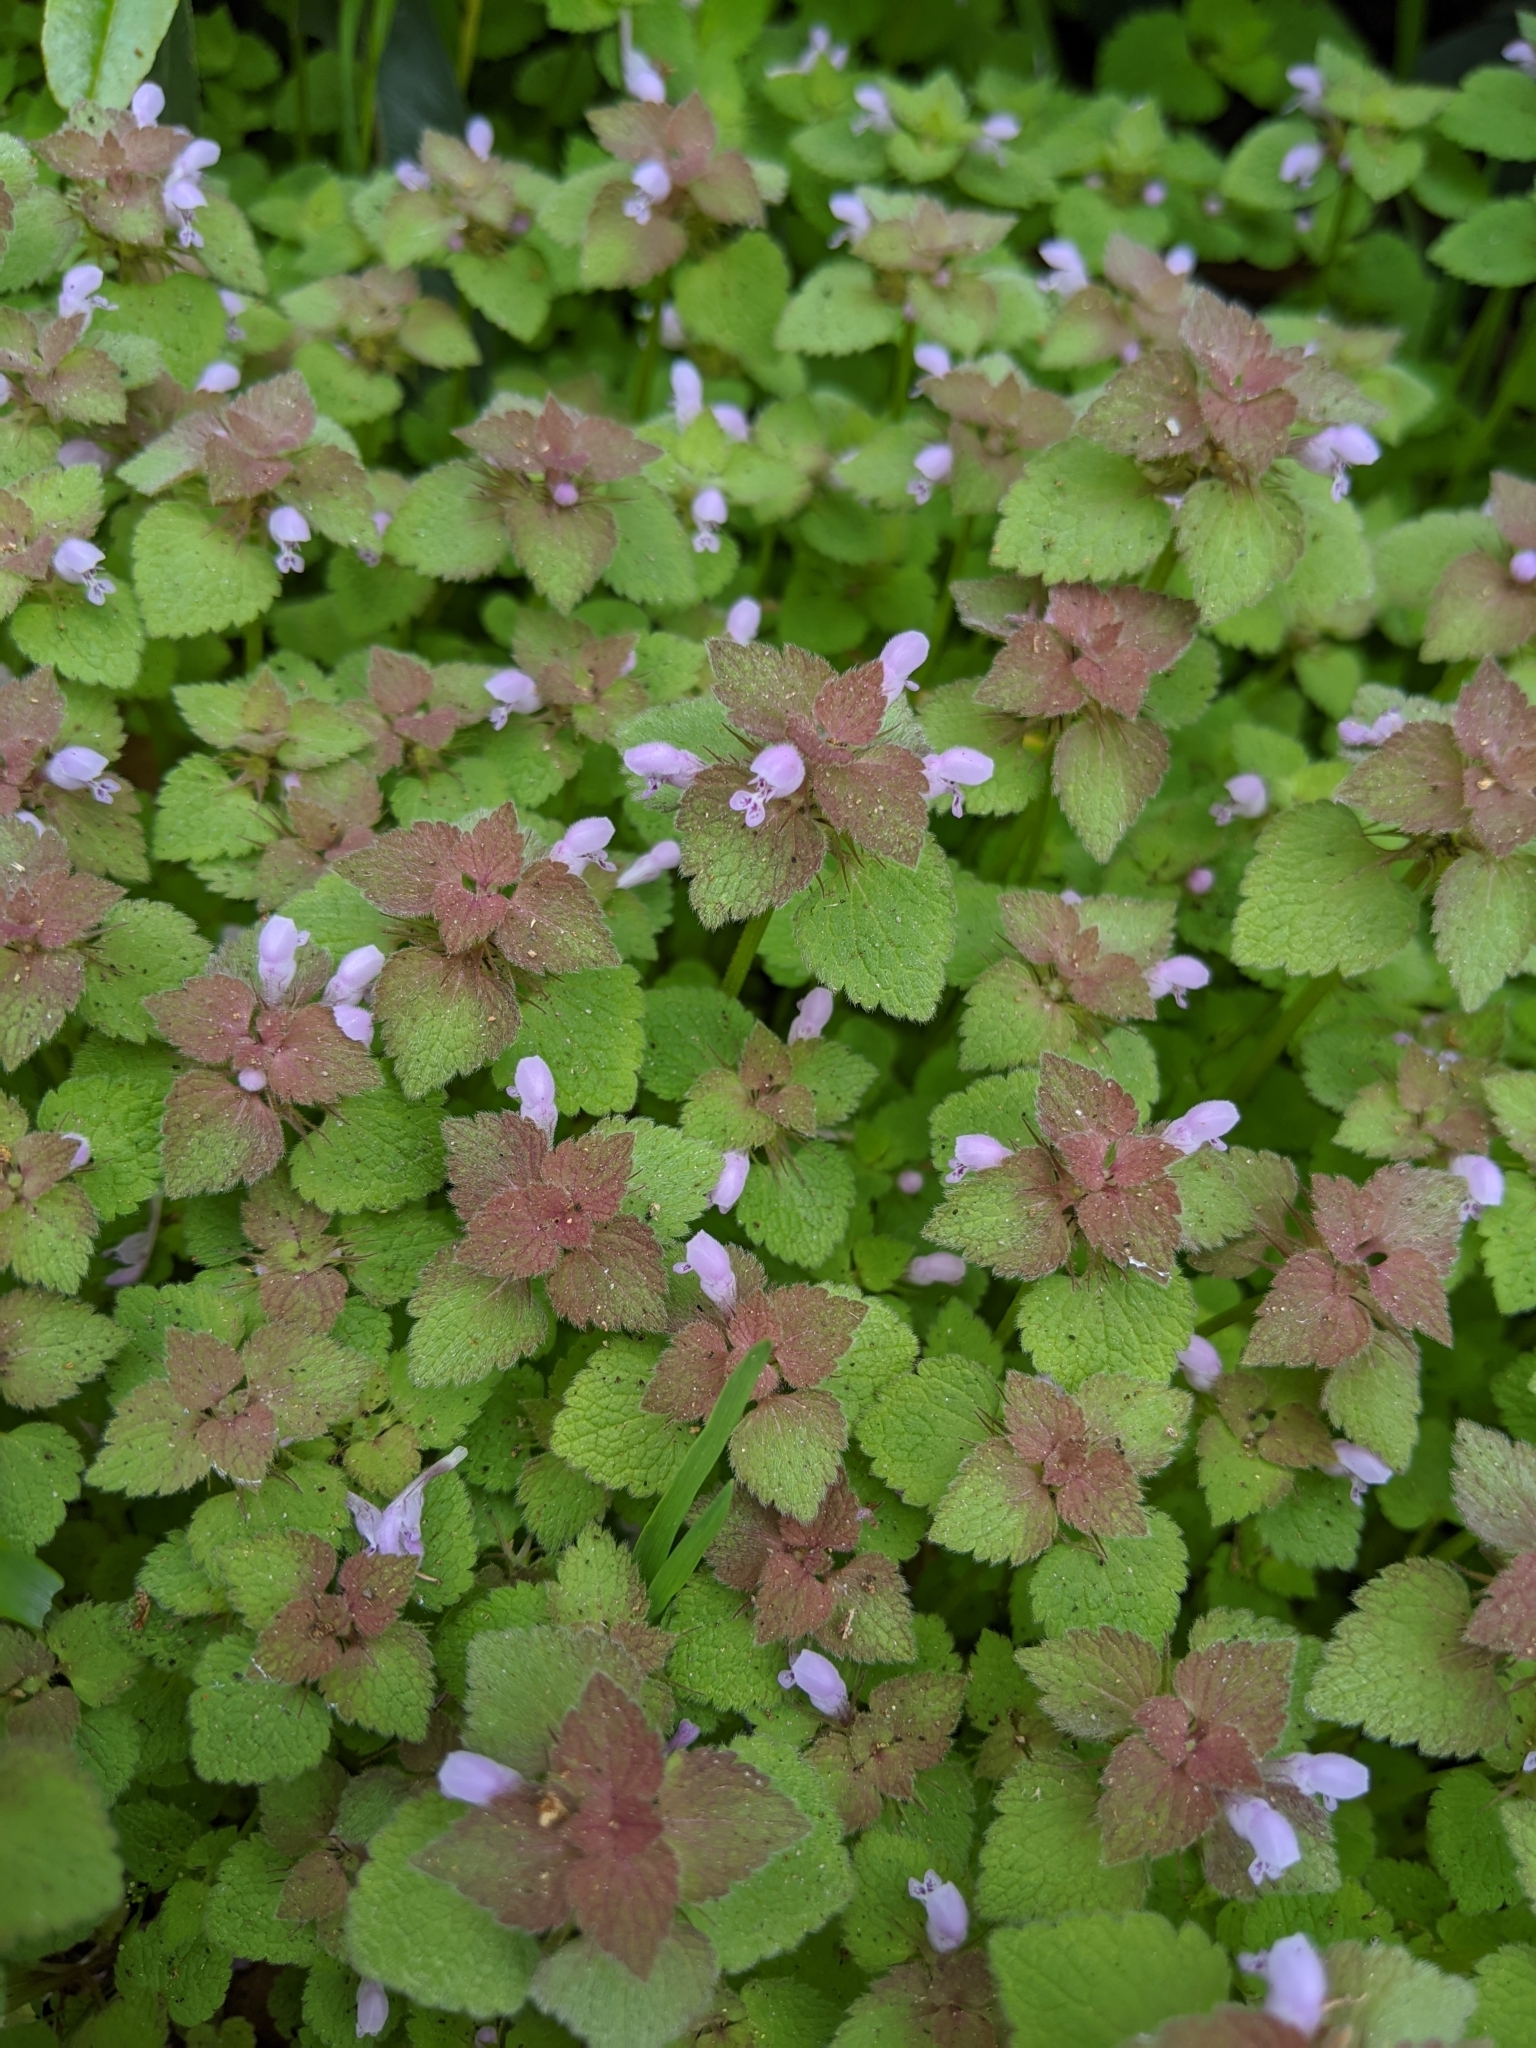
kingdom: Plantae
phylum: Tracheophyta
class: Magnoliopsida
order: Lamiales
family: Lamiaceae
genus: Lamium
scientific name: Lamium purpureum
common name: Red dead-nettle
